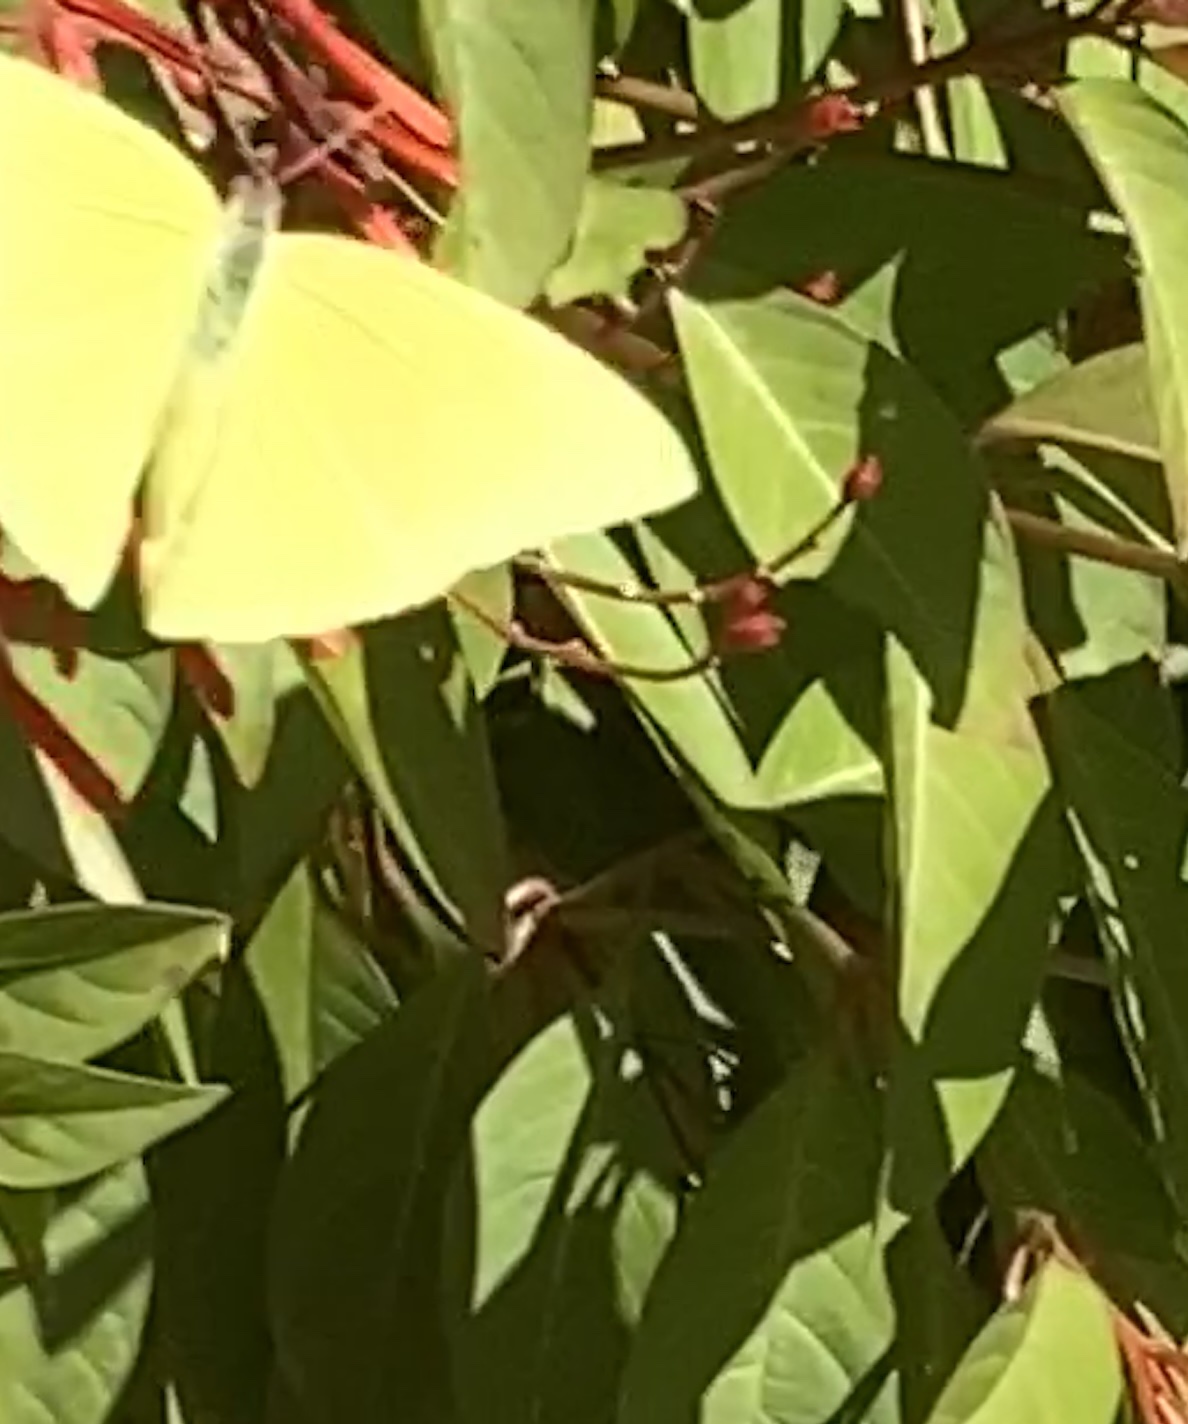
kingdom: Animalia
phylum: Arthropoda
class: Insecta
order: Lepidoptera
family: Pieridae
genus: Phoebis
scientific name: Phoebis sennae
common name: Cloudless sulphur
